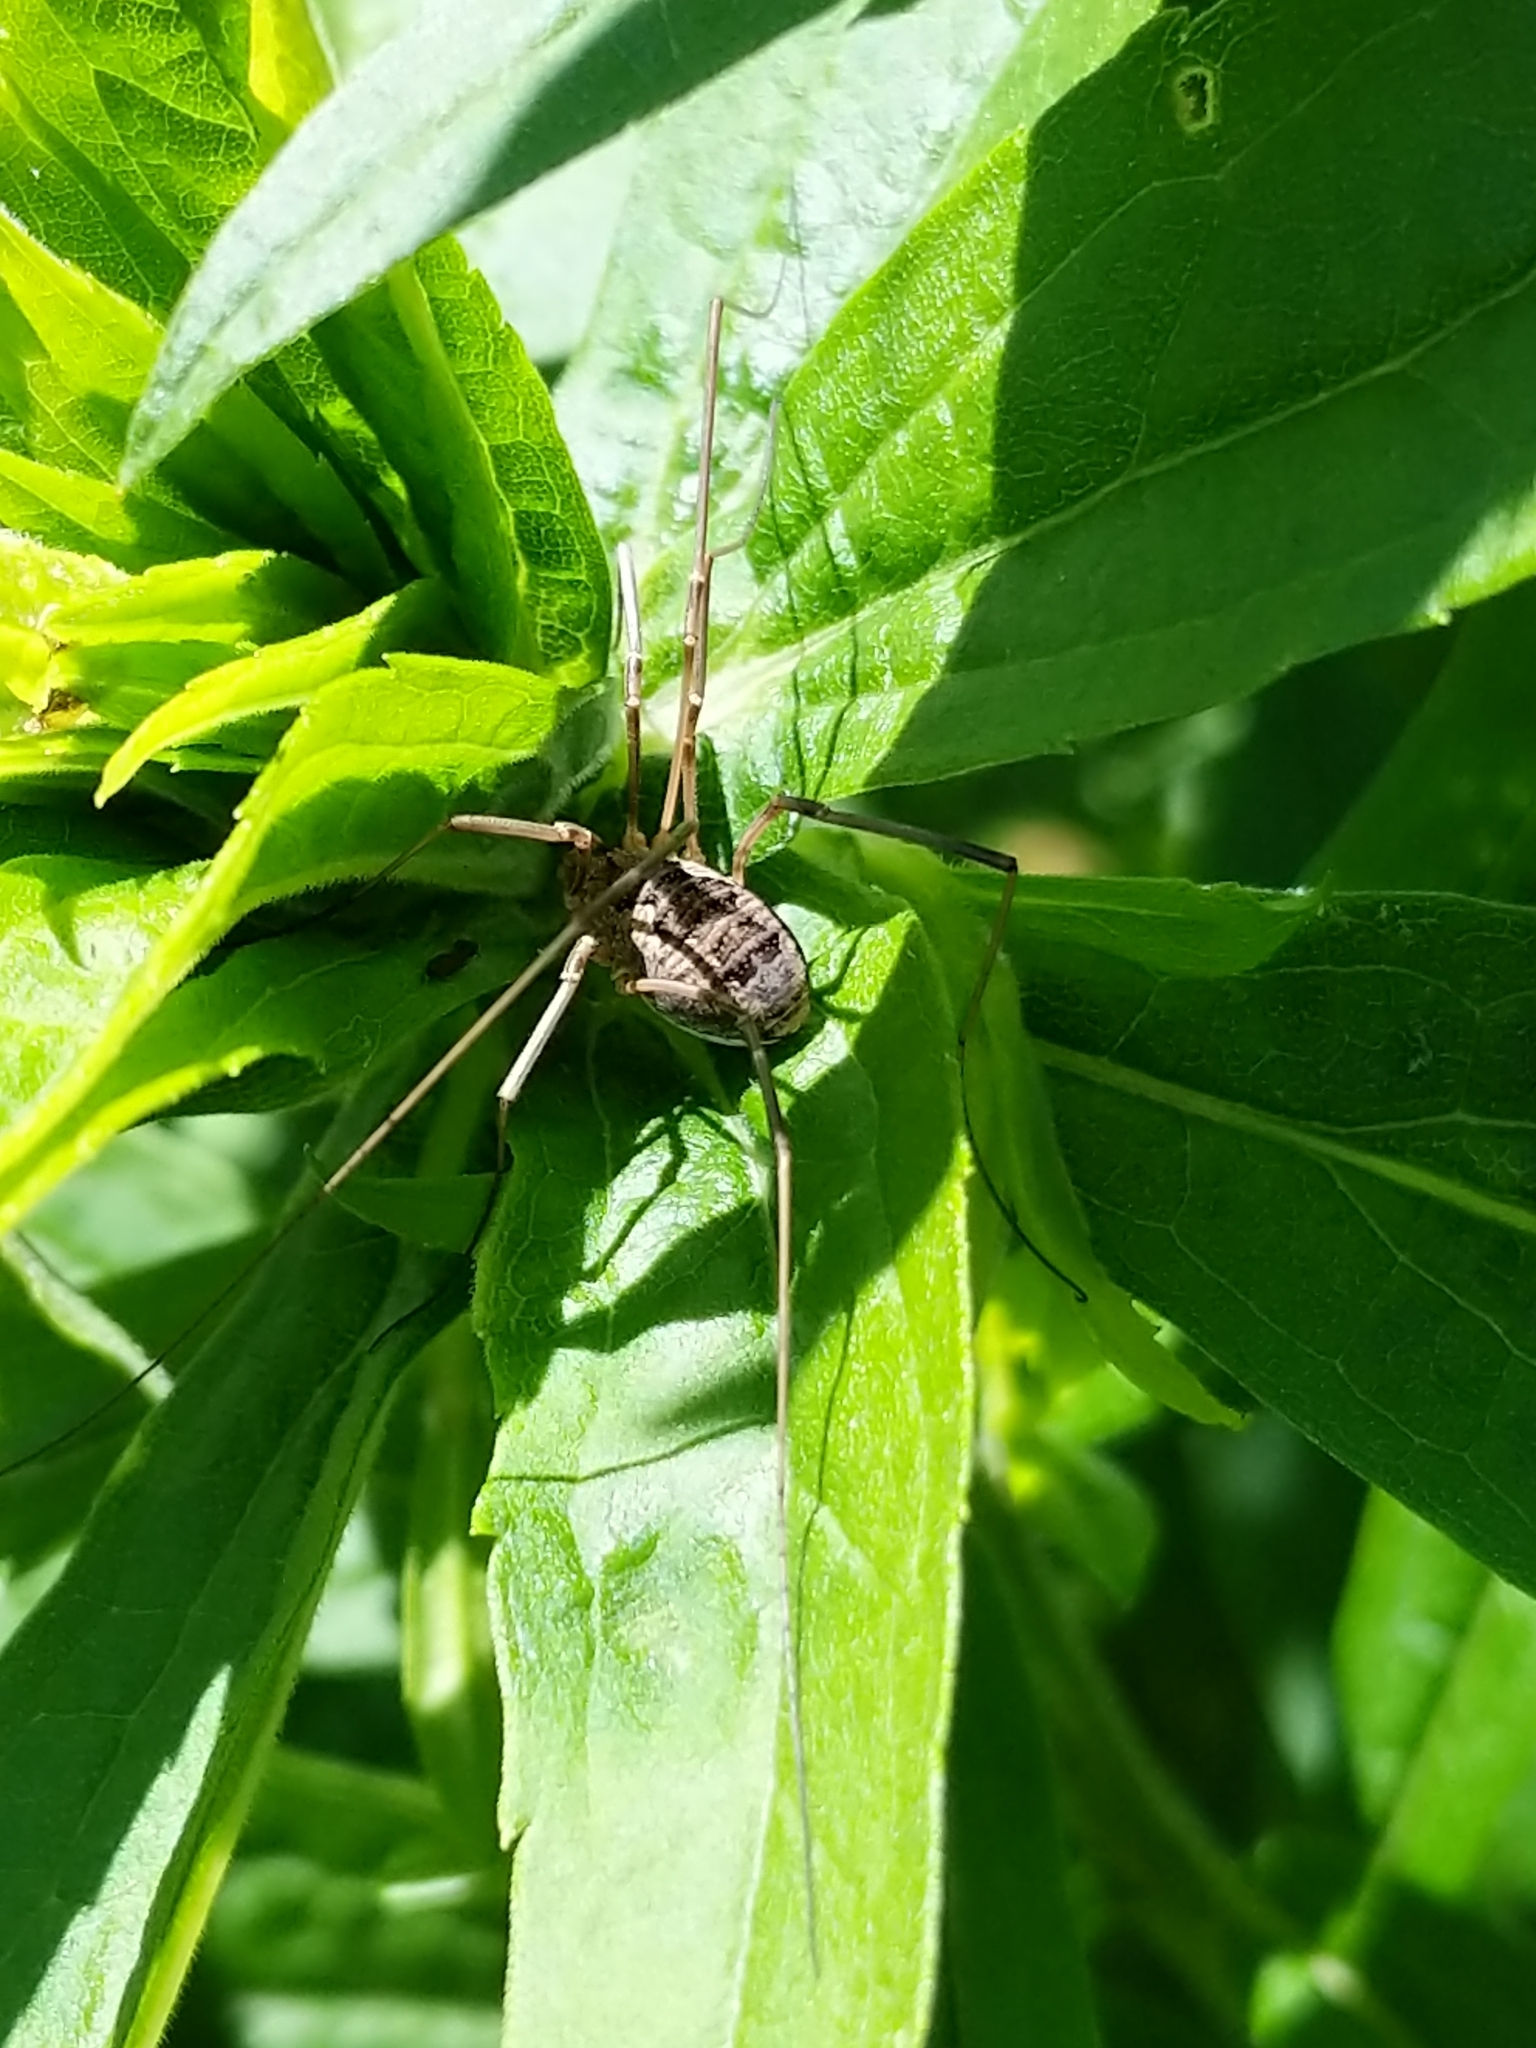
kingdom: Animalia
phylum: Arthropoda
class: Arachnida
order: Opiliones
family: Phalangiidae
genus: Phalangium
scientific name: Phalangium opilio
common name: Daddy longleg
